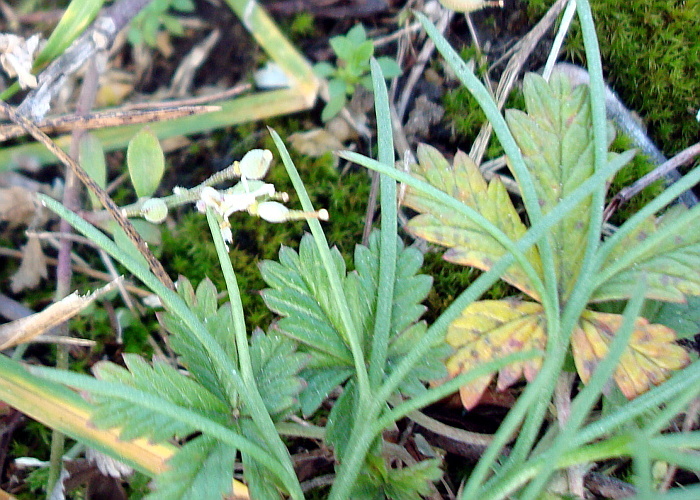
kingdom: Plantae
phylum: Tracheophyta
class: Magnoliopsida
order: Asterales
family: Asteraceae
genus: Artemisia
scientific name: Artemisia campestris
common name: Field wormwood
